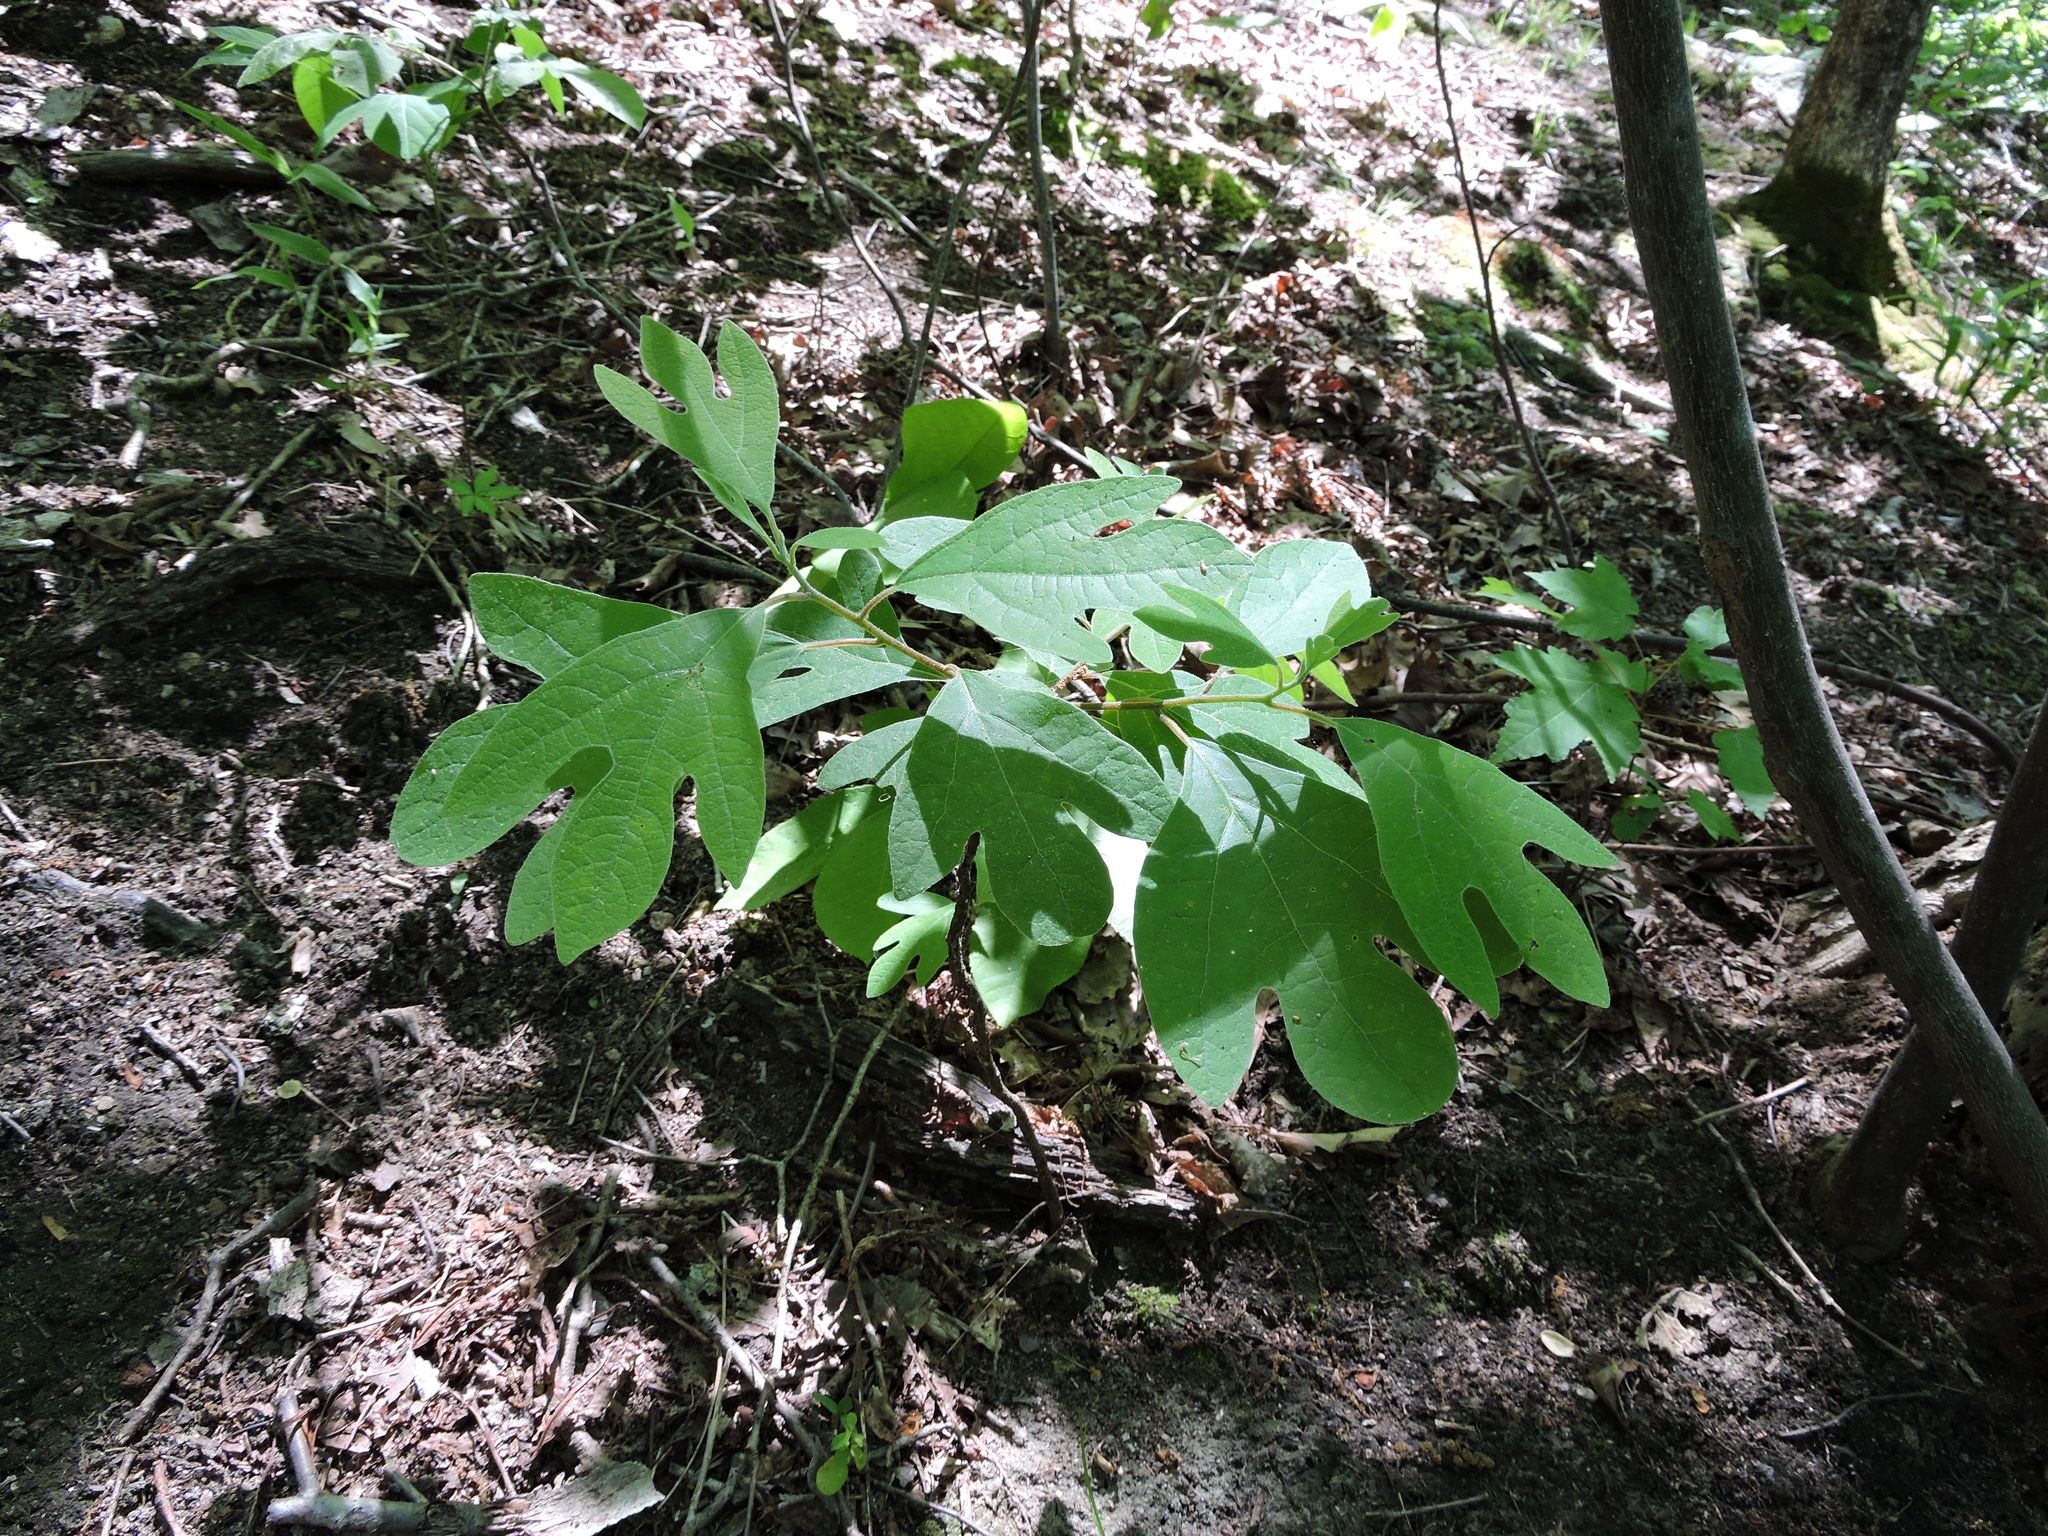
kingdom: Plantae
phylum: Tracheophyta
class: Magnoliopsida
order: Laurales
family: Lauraceae
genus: Sassafras
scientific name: Sassafras albidum
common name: Sassafras
